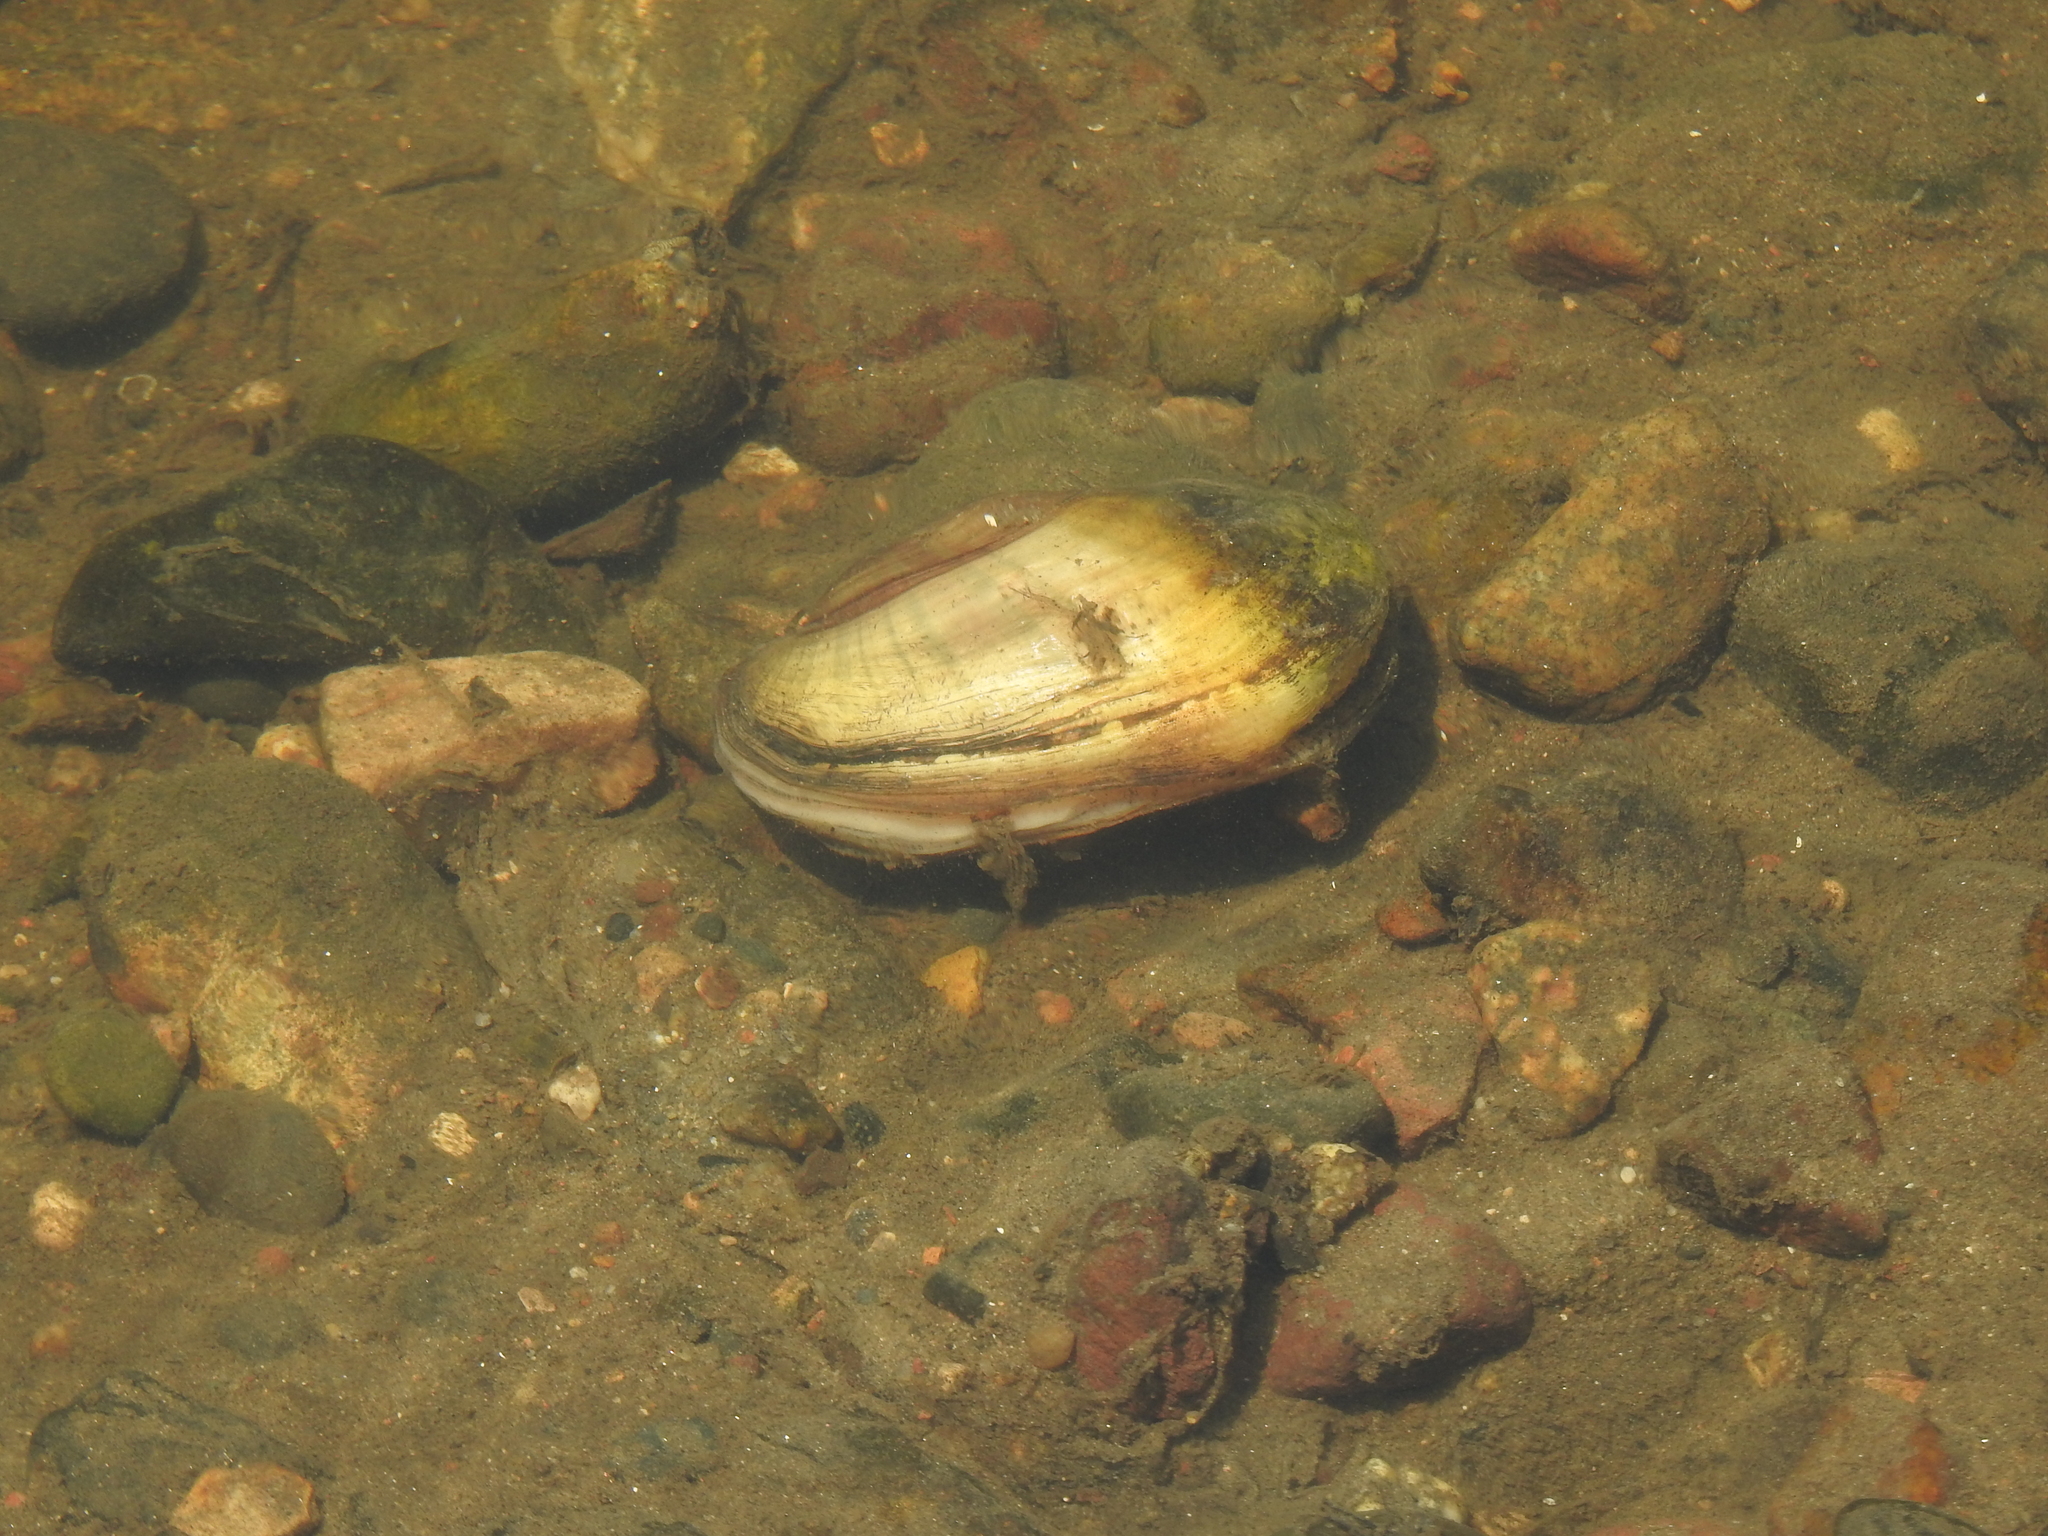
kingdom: Animalia
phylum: Mollusca
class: Bivalvia
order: Unionida
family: Unionidae
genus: Lampsilis
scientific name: Lampsilis siliquoidea
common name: Fatmucket
